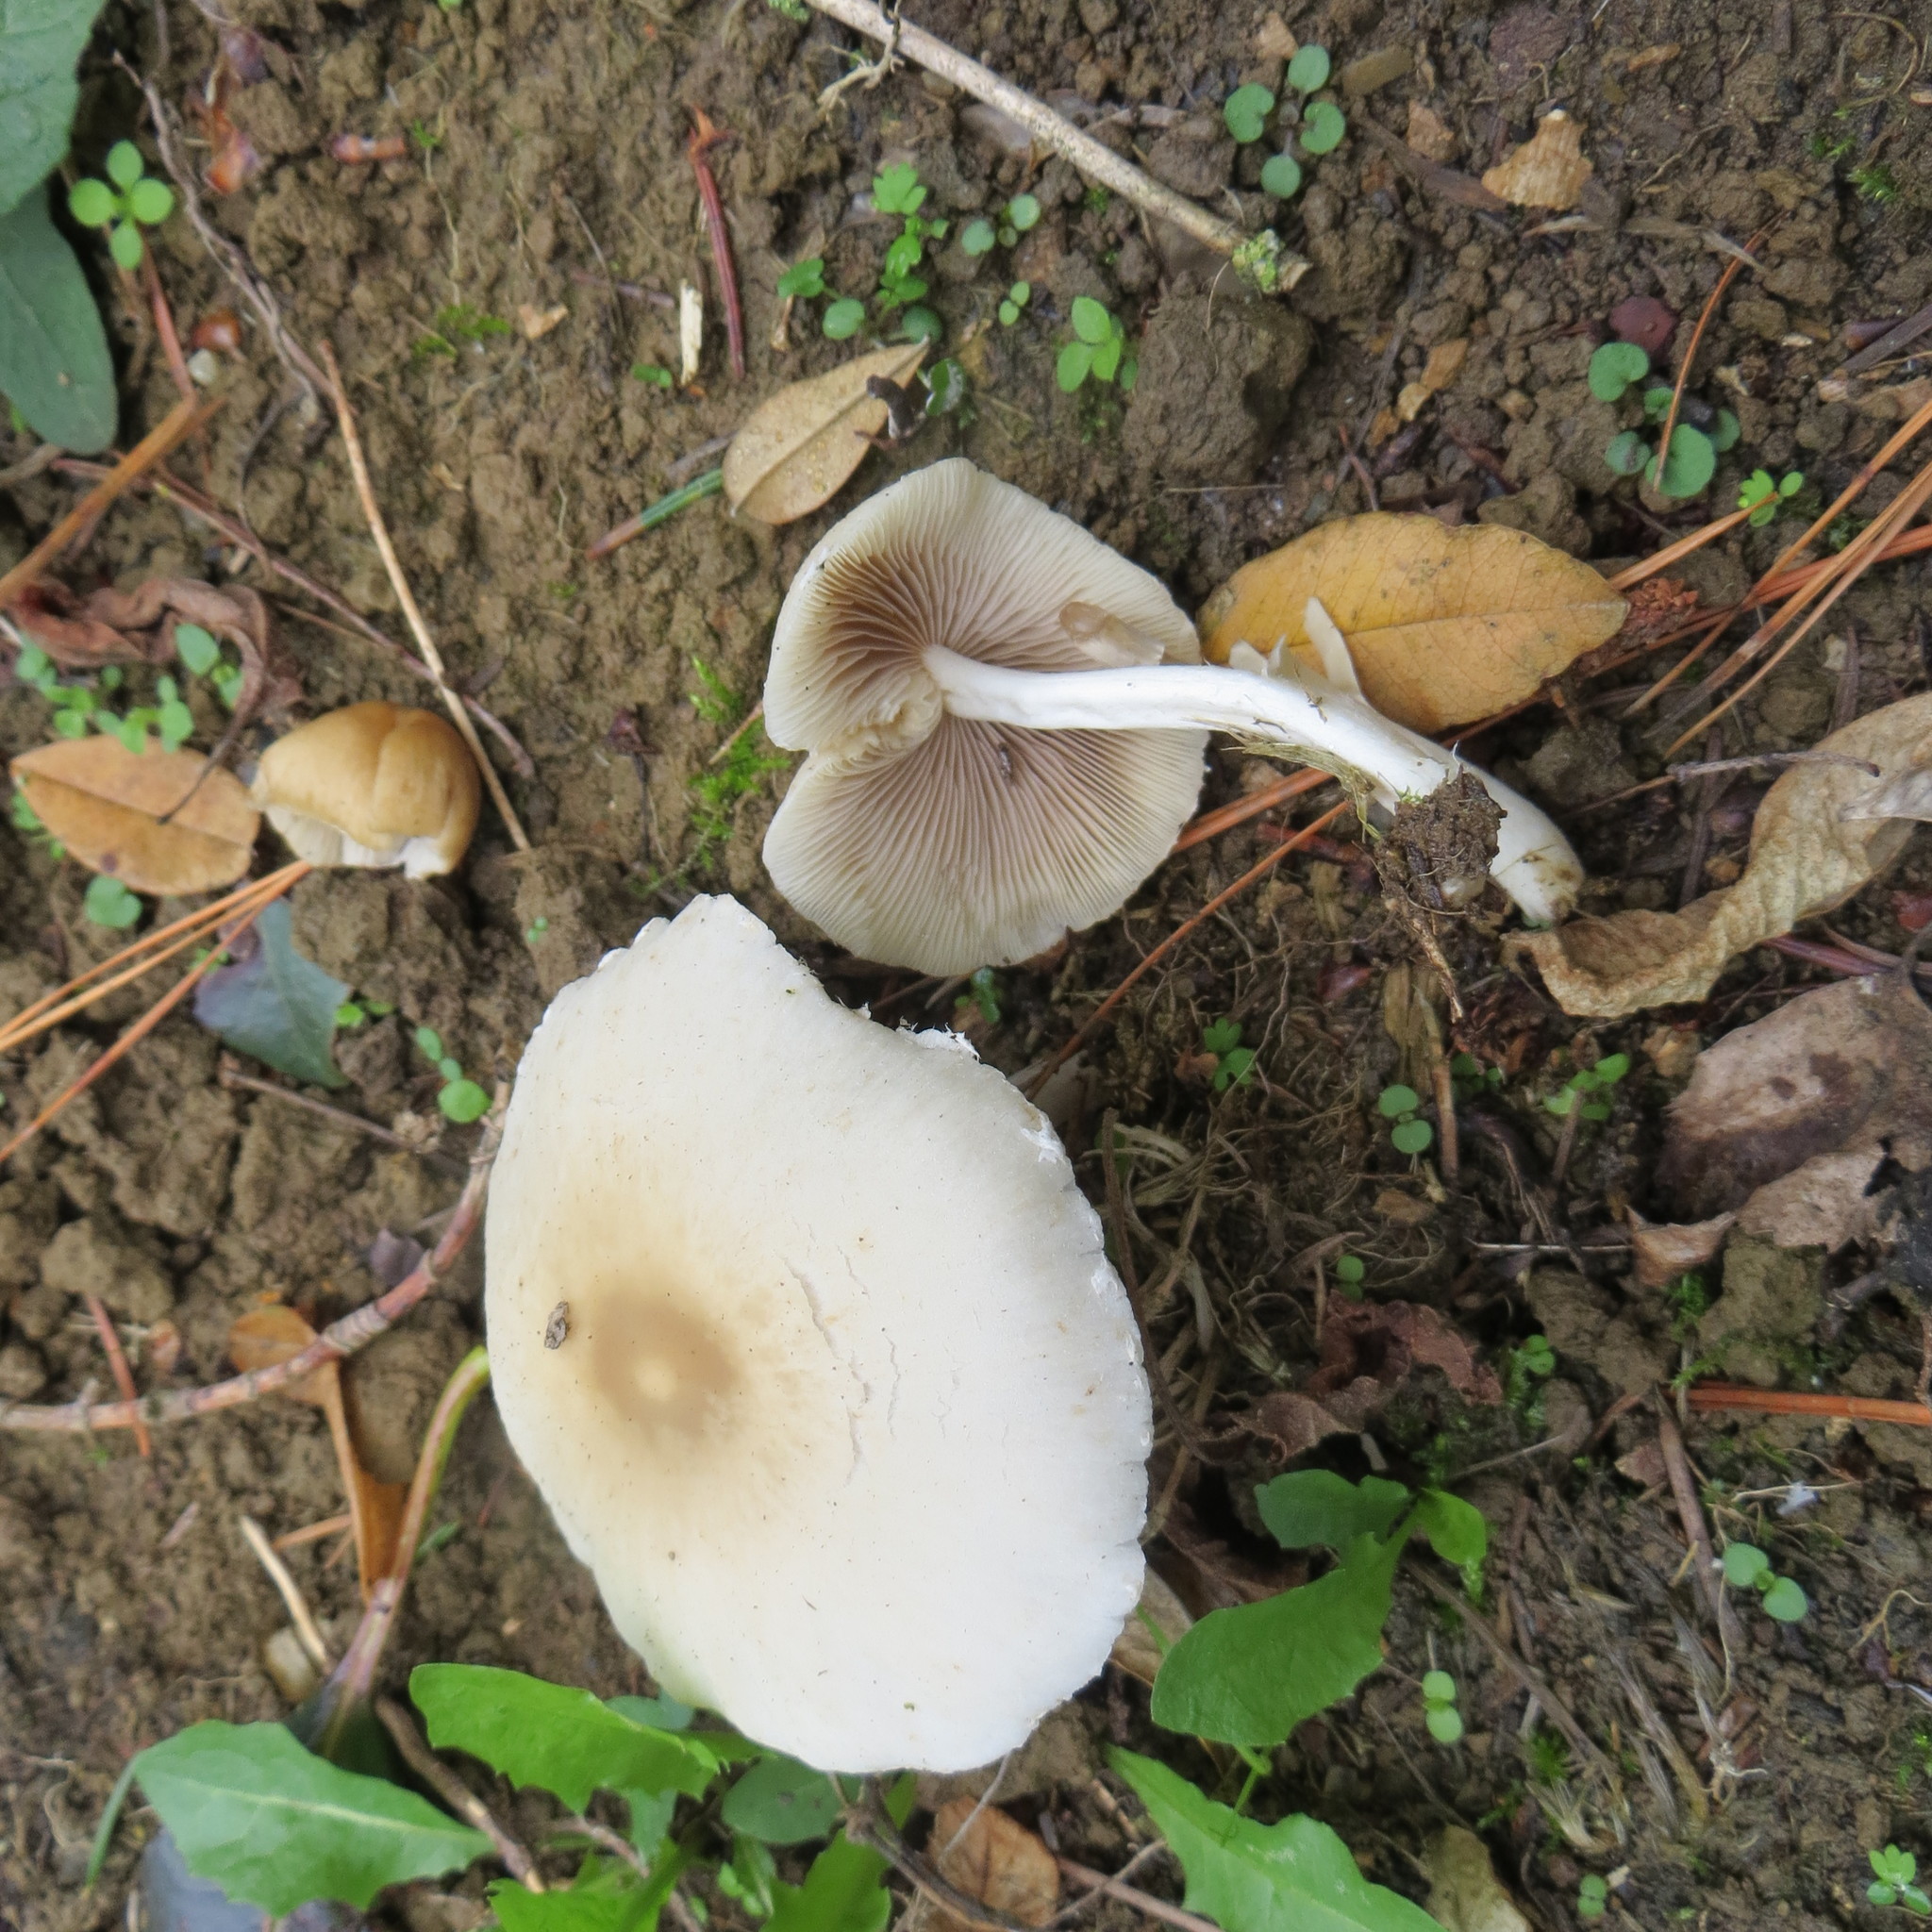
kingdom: Fungi
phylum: Basidiomycota
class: Agaricomycetes
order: Agaricales
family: Psathyrellaceae
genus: Candolleomyces
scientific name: Candolleomyces candolleanus
